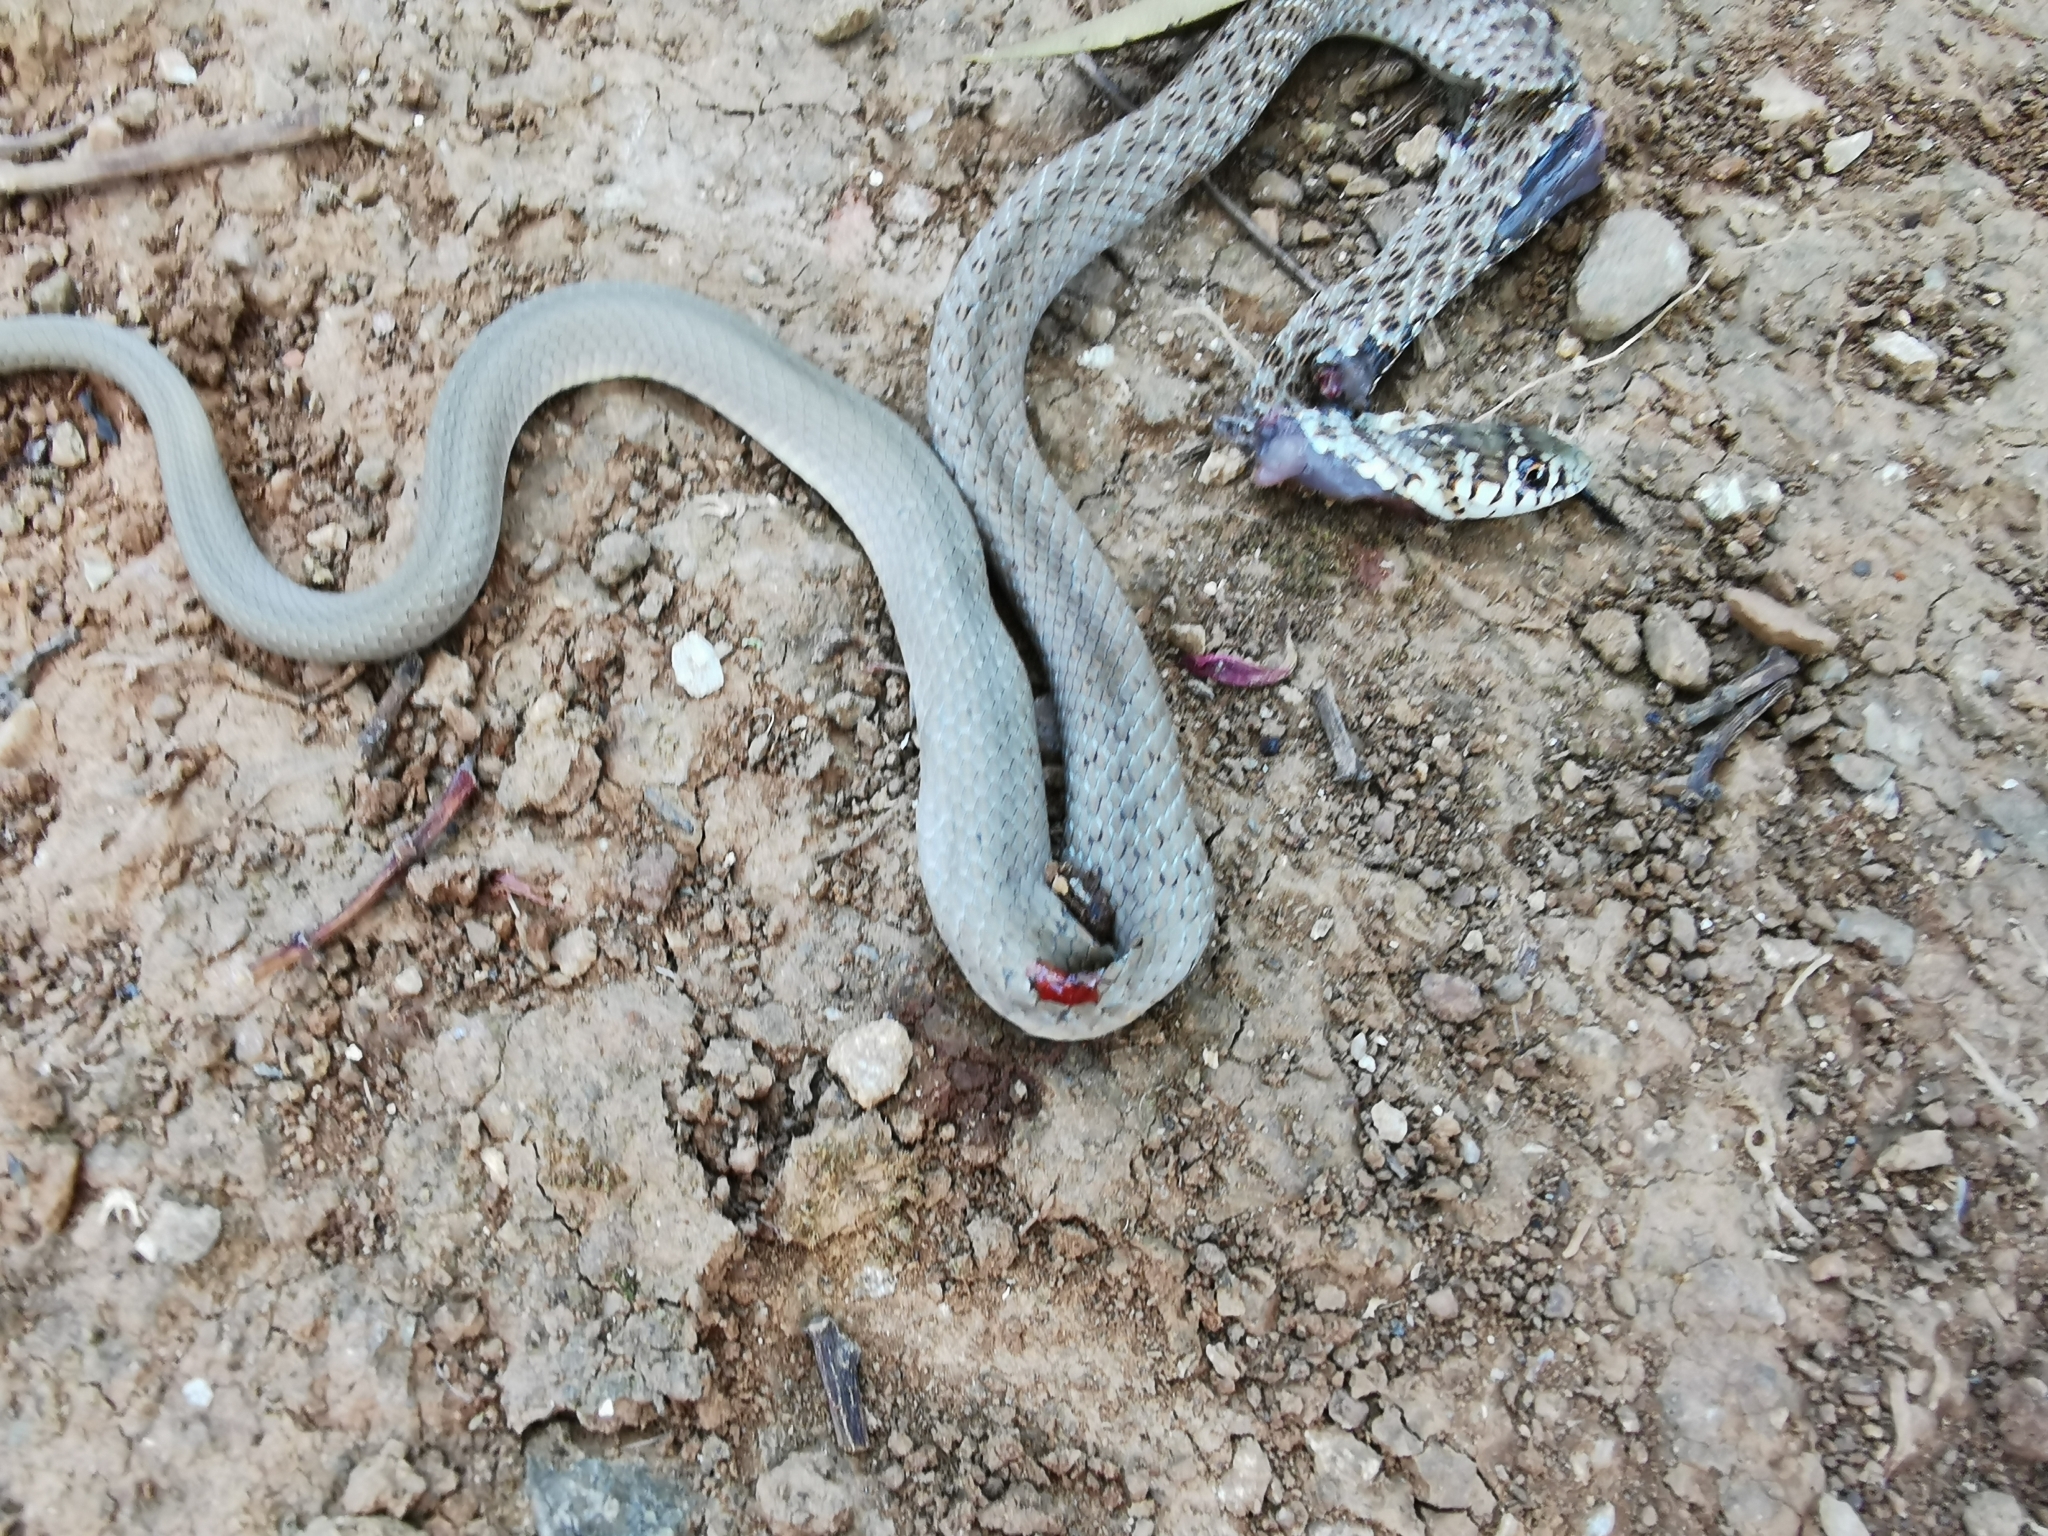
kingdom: Animalia
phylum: Chordata
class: Squamata
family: Colubridae
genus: Hierophis
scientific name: Hierophis gemonensis
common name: Balkan whip snake
